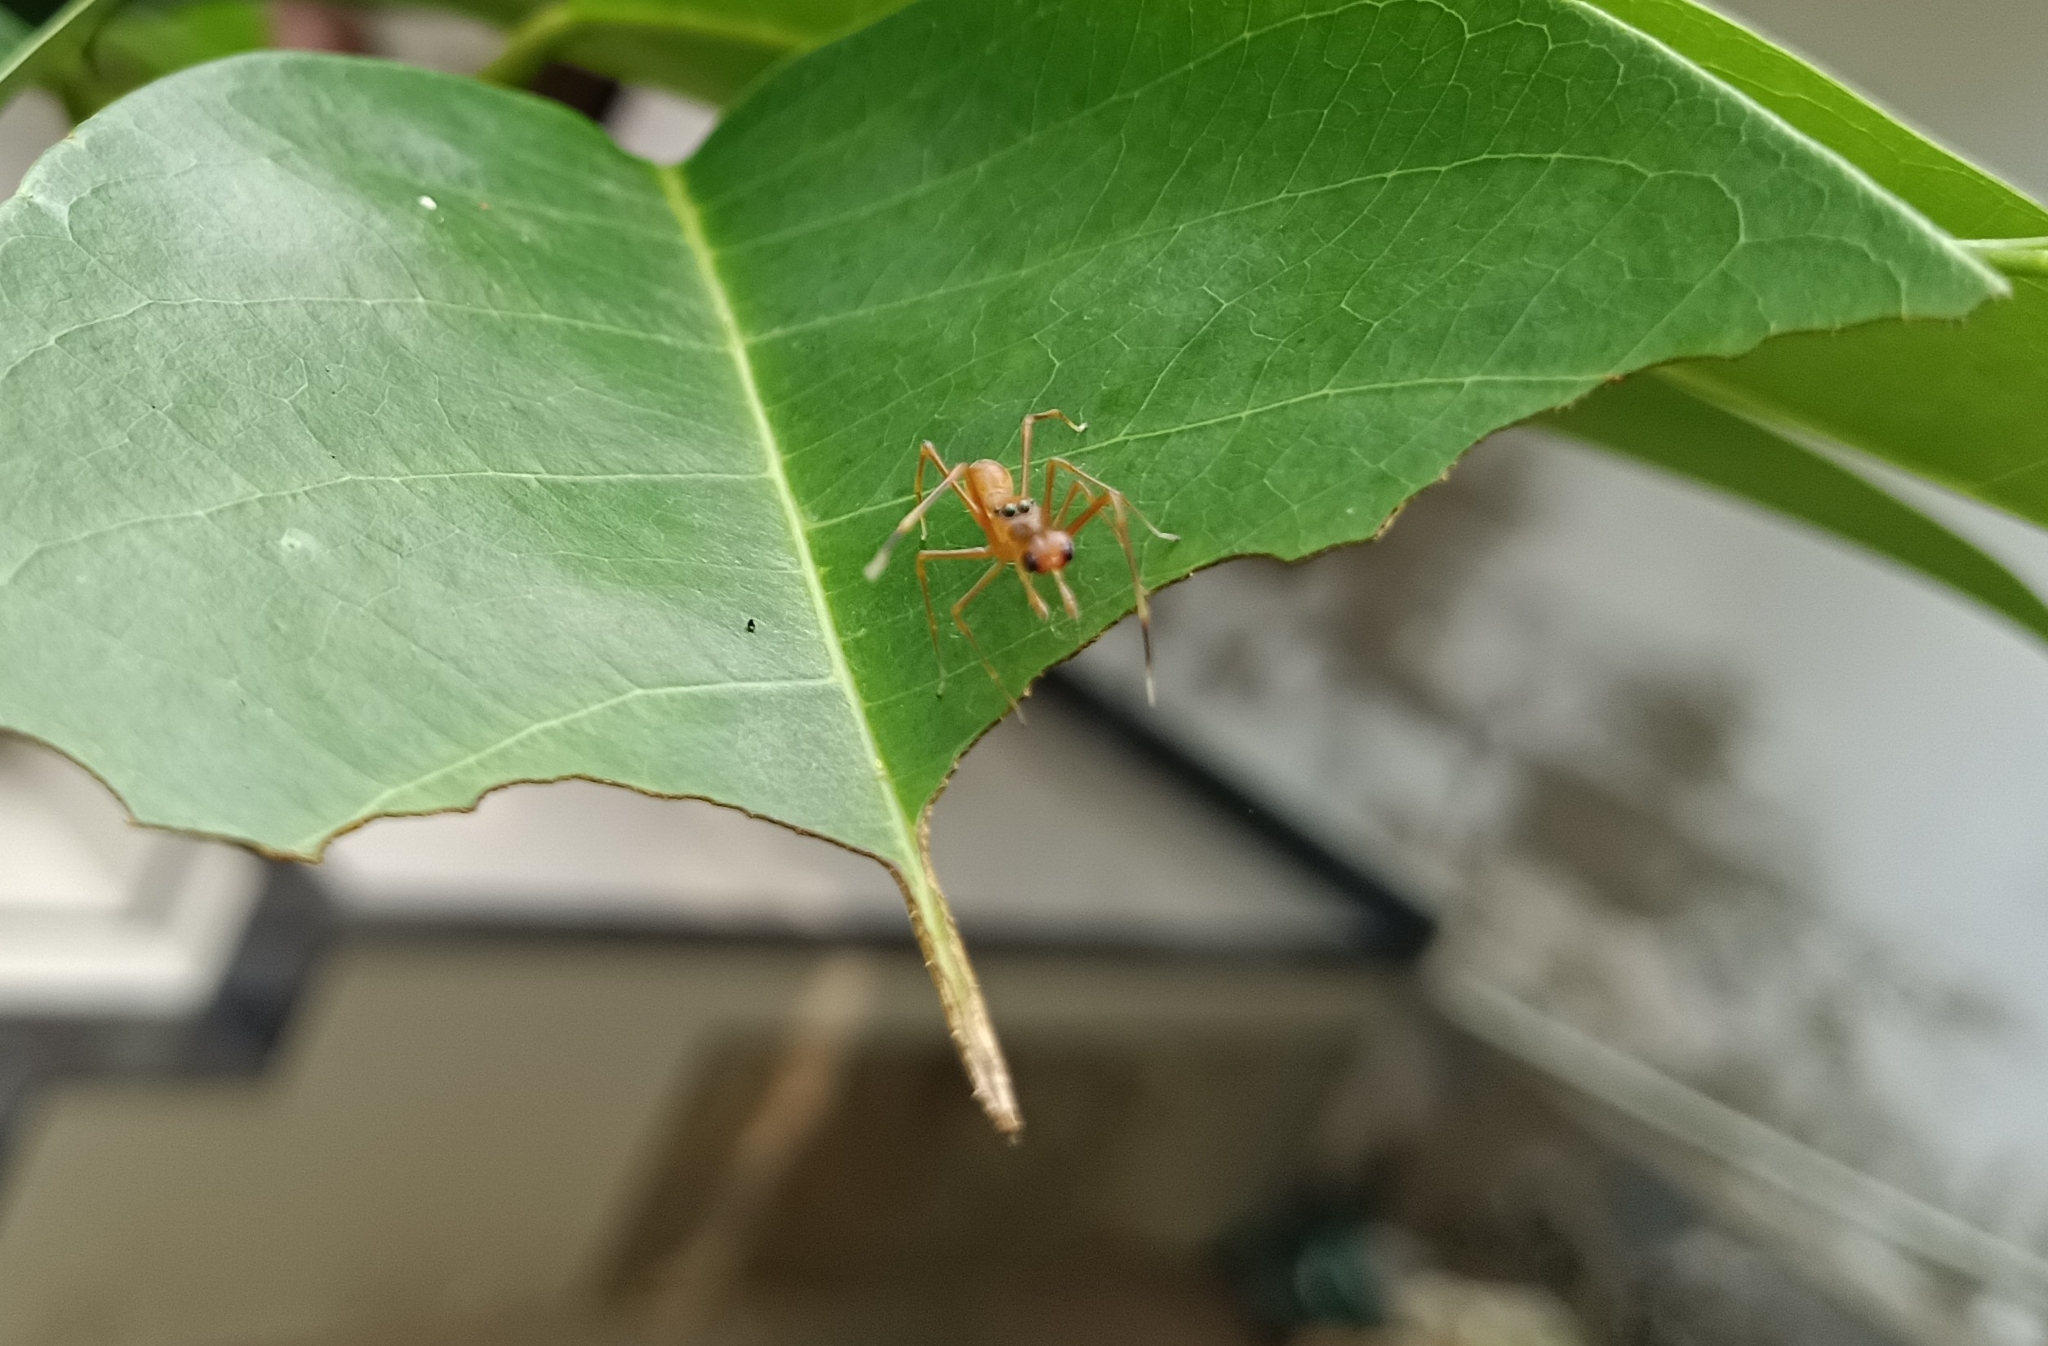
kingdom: Animalia
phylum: Arthropoda
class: Arachnida
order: Araneae
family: Salticidae
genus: Myrmaplata
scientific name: Myrmaplata plataleoides
